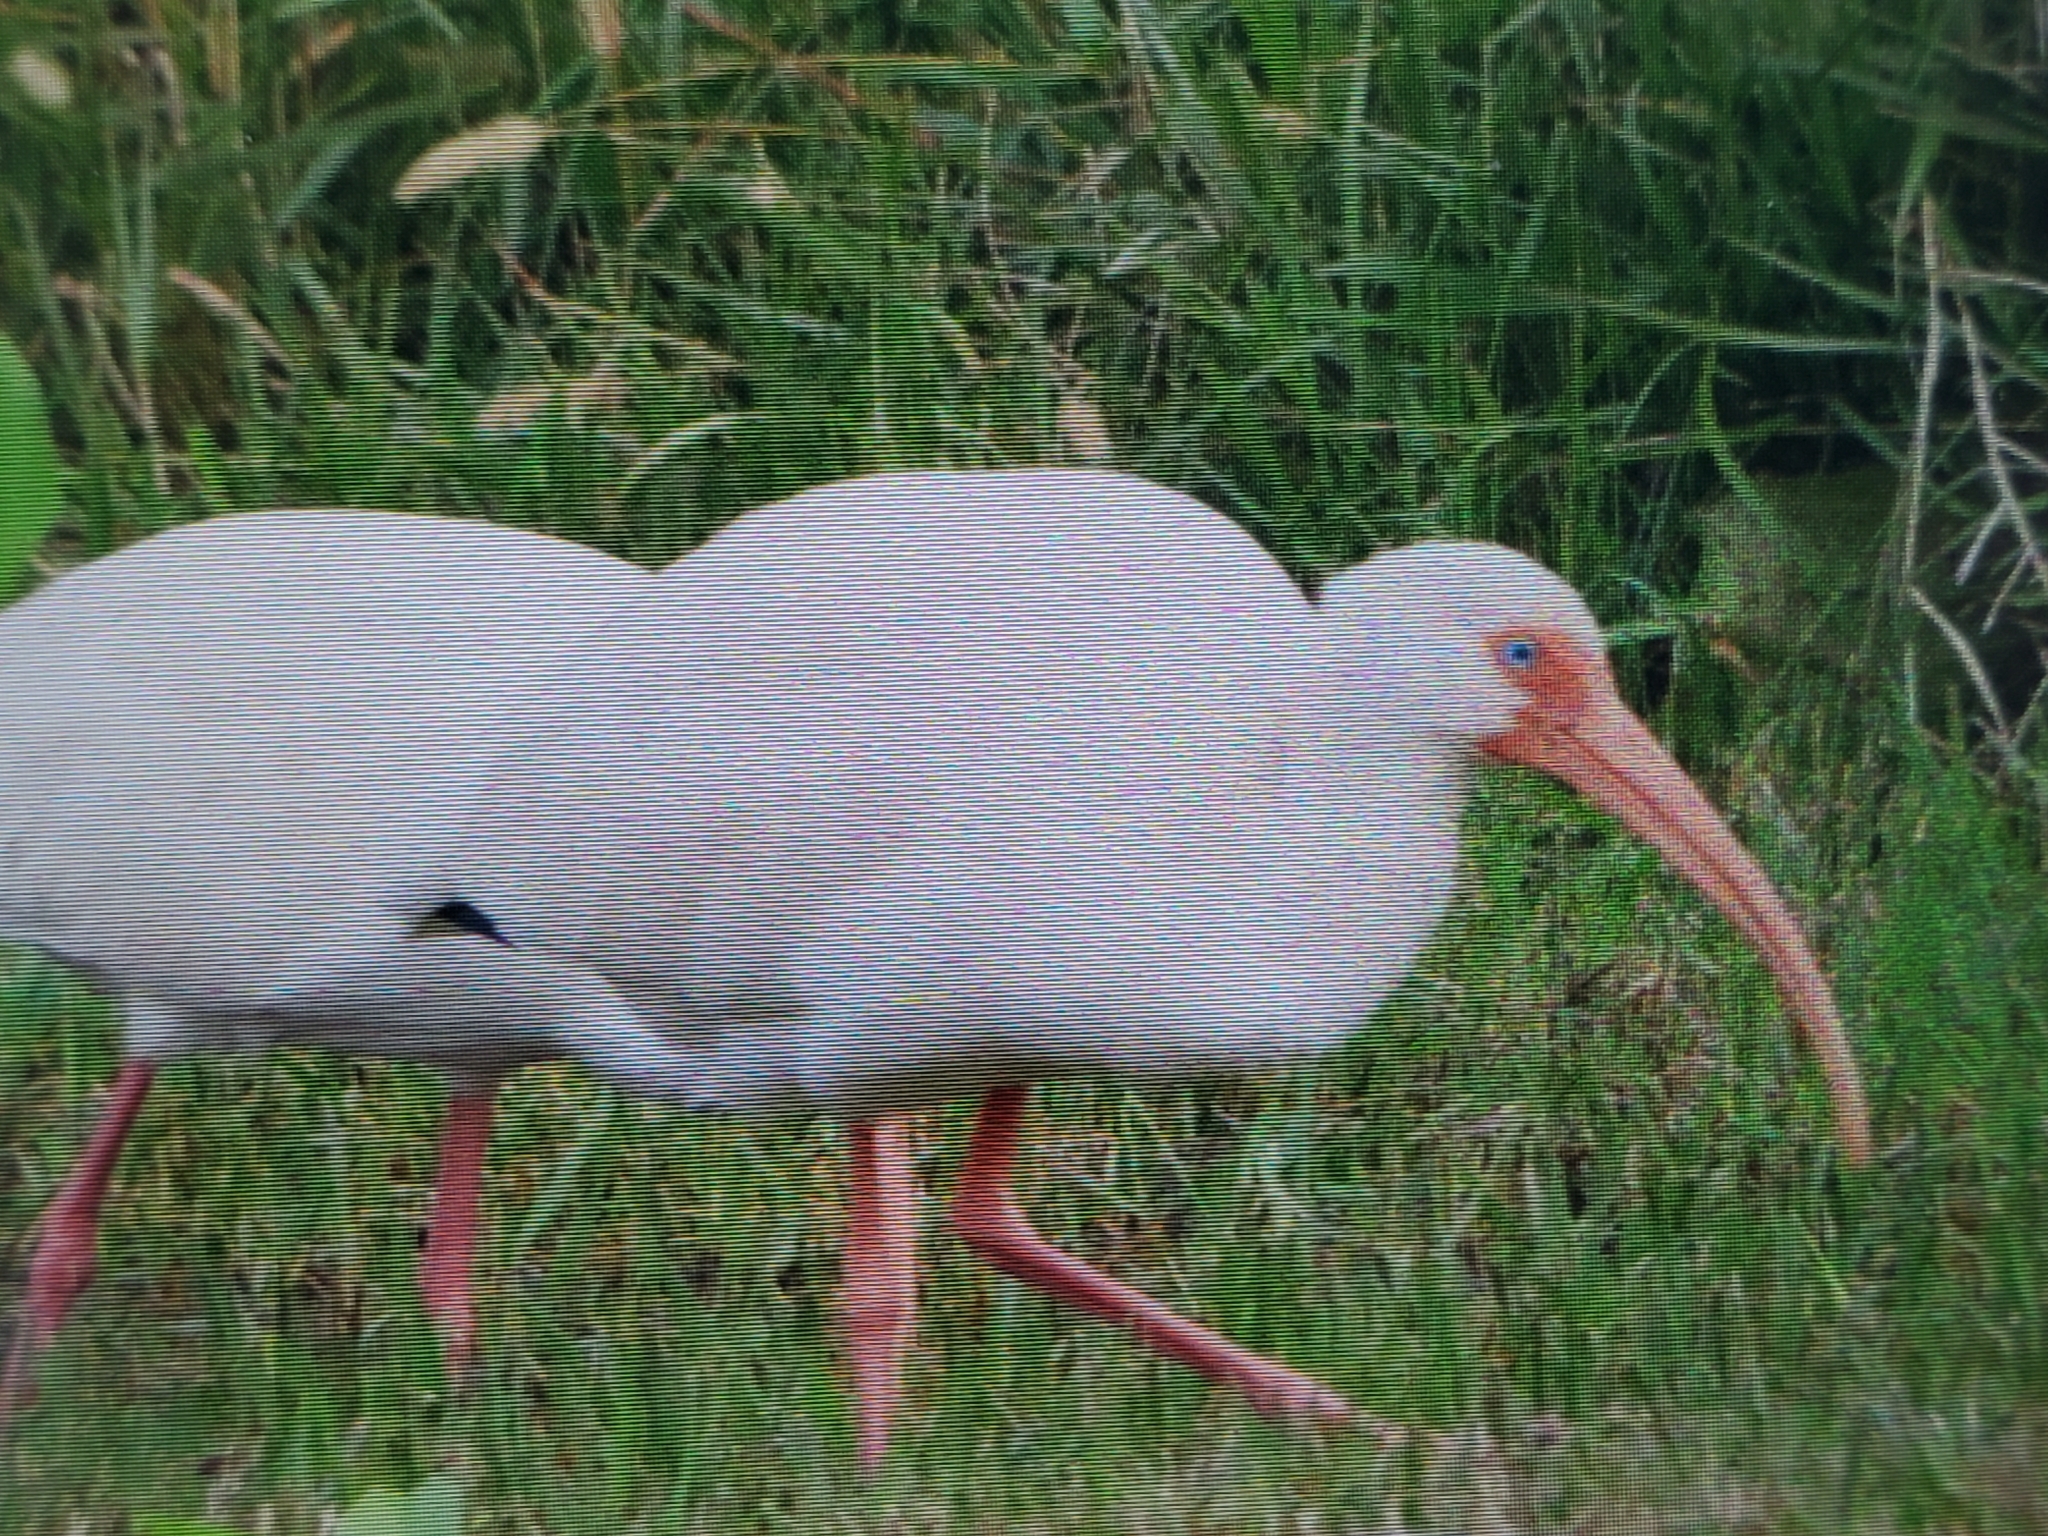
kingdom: Animalia
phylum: Chordata
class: Aves
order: Pelecaniformes
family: Threskiornithidae
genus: Eudocimus
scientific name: Eudocimus albus
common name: White ibis
